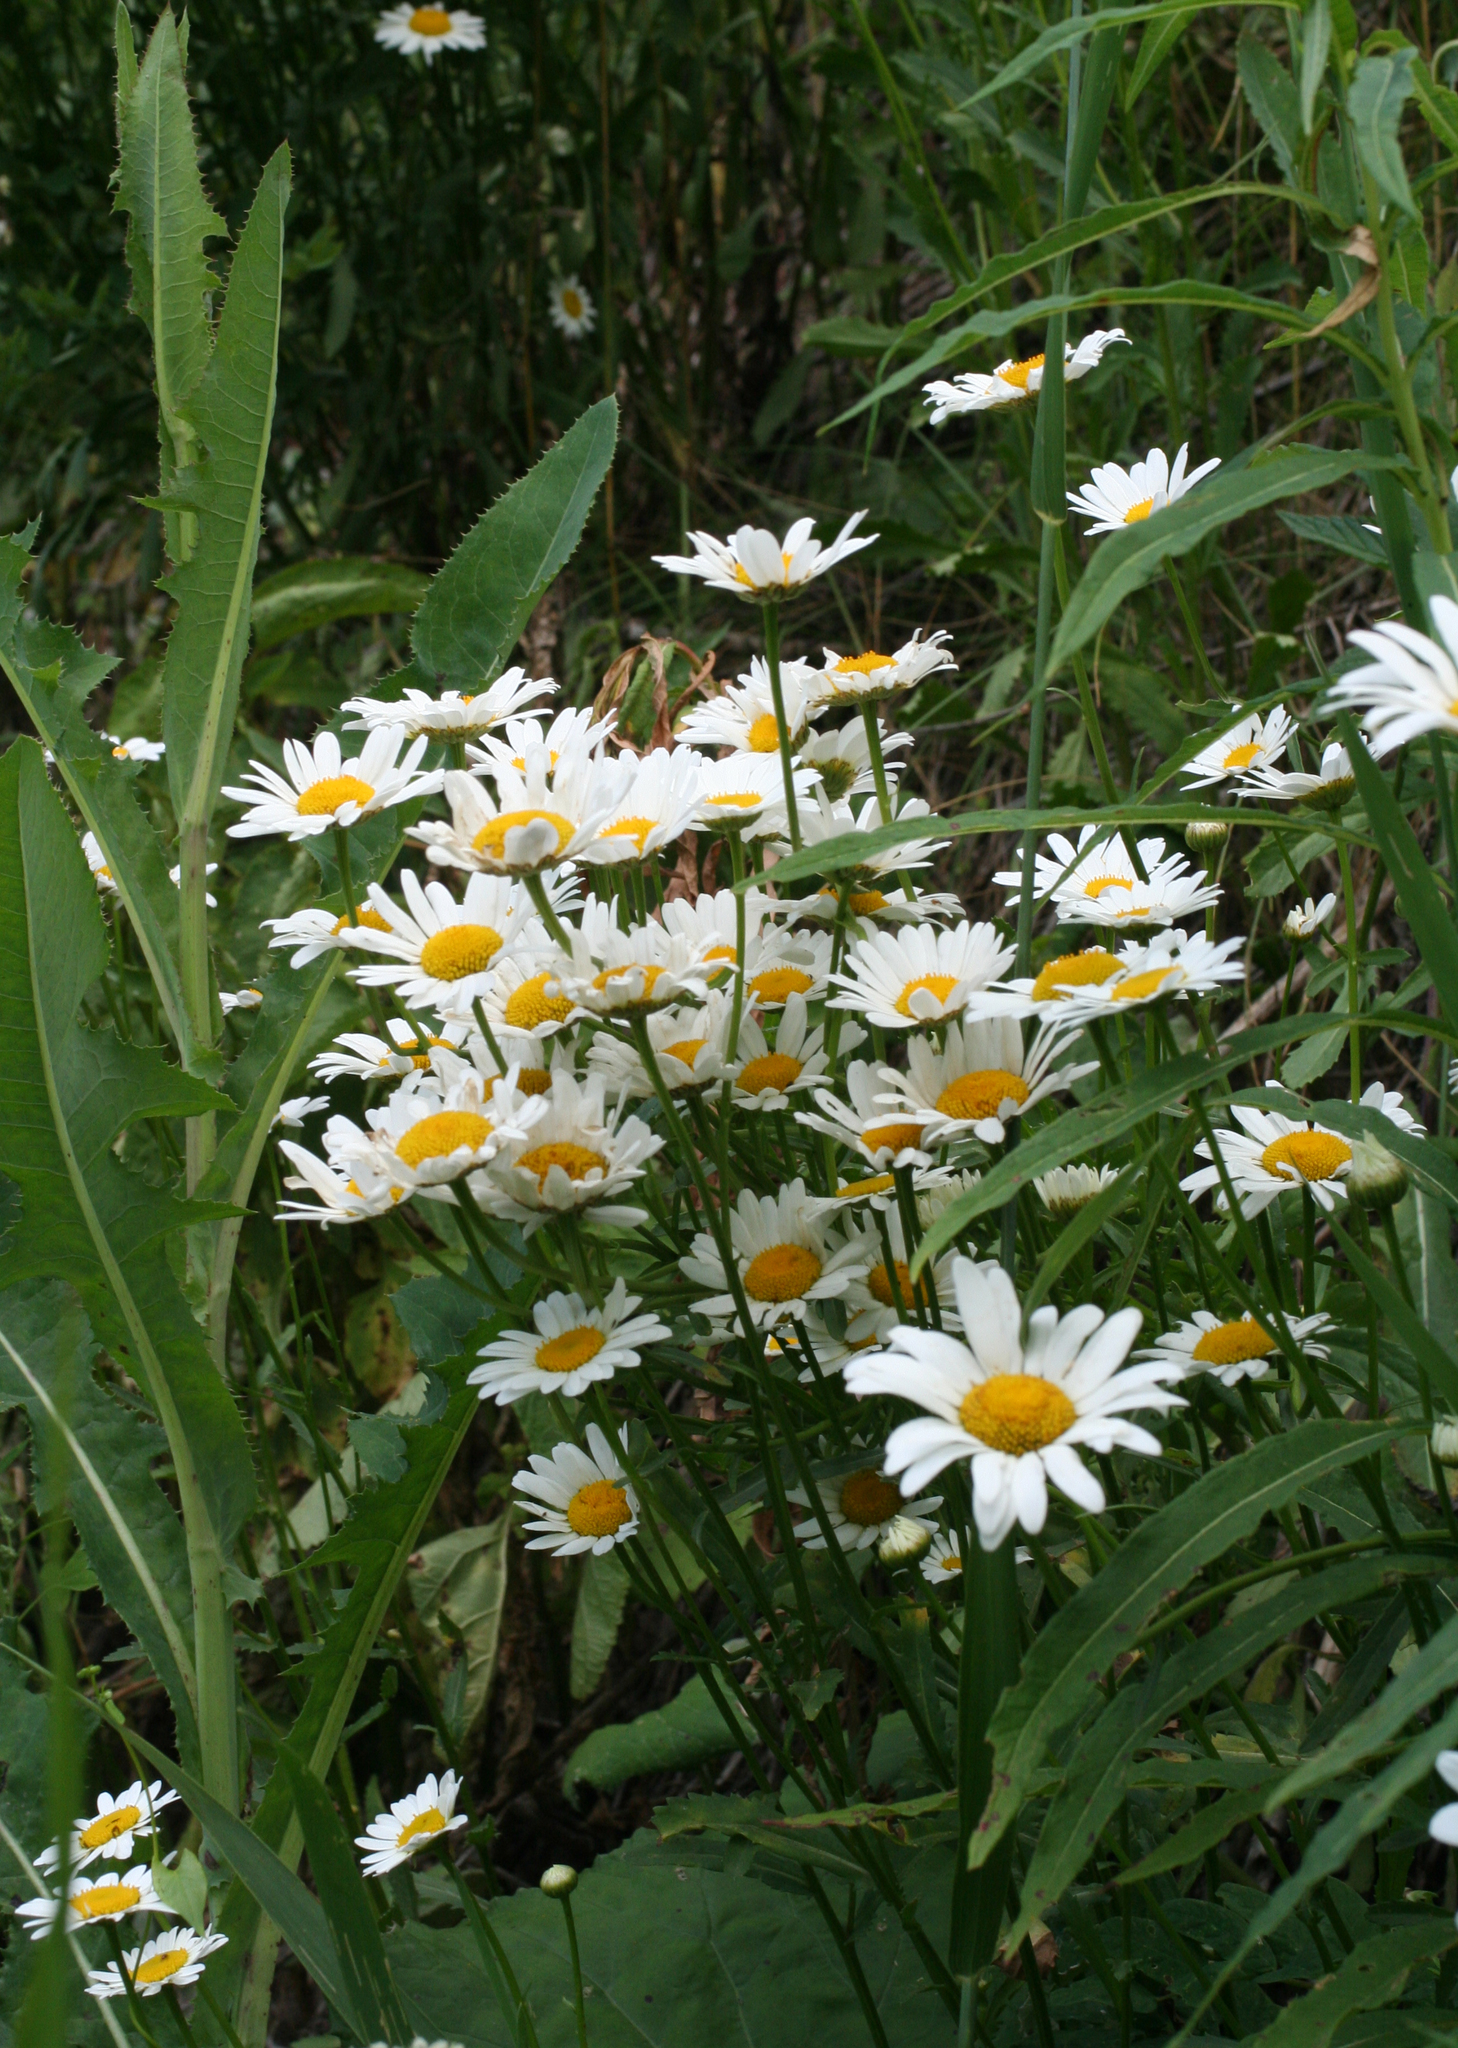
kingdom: Plantae
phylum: Tracheophyta
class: Magnoliopsida
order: Asterales
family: Asteraceae
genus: Leucanthemum
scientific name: Leucanthemum vulgare
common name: Oxeye daisy
